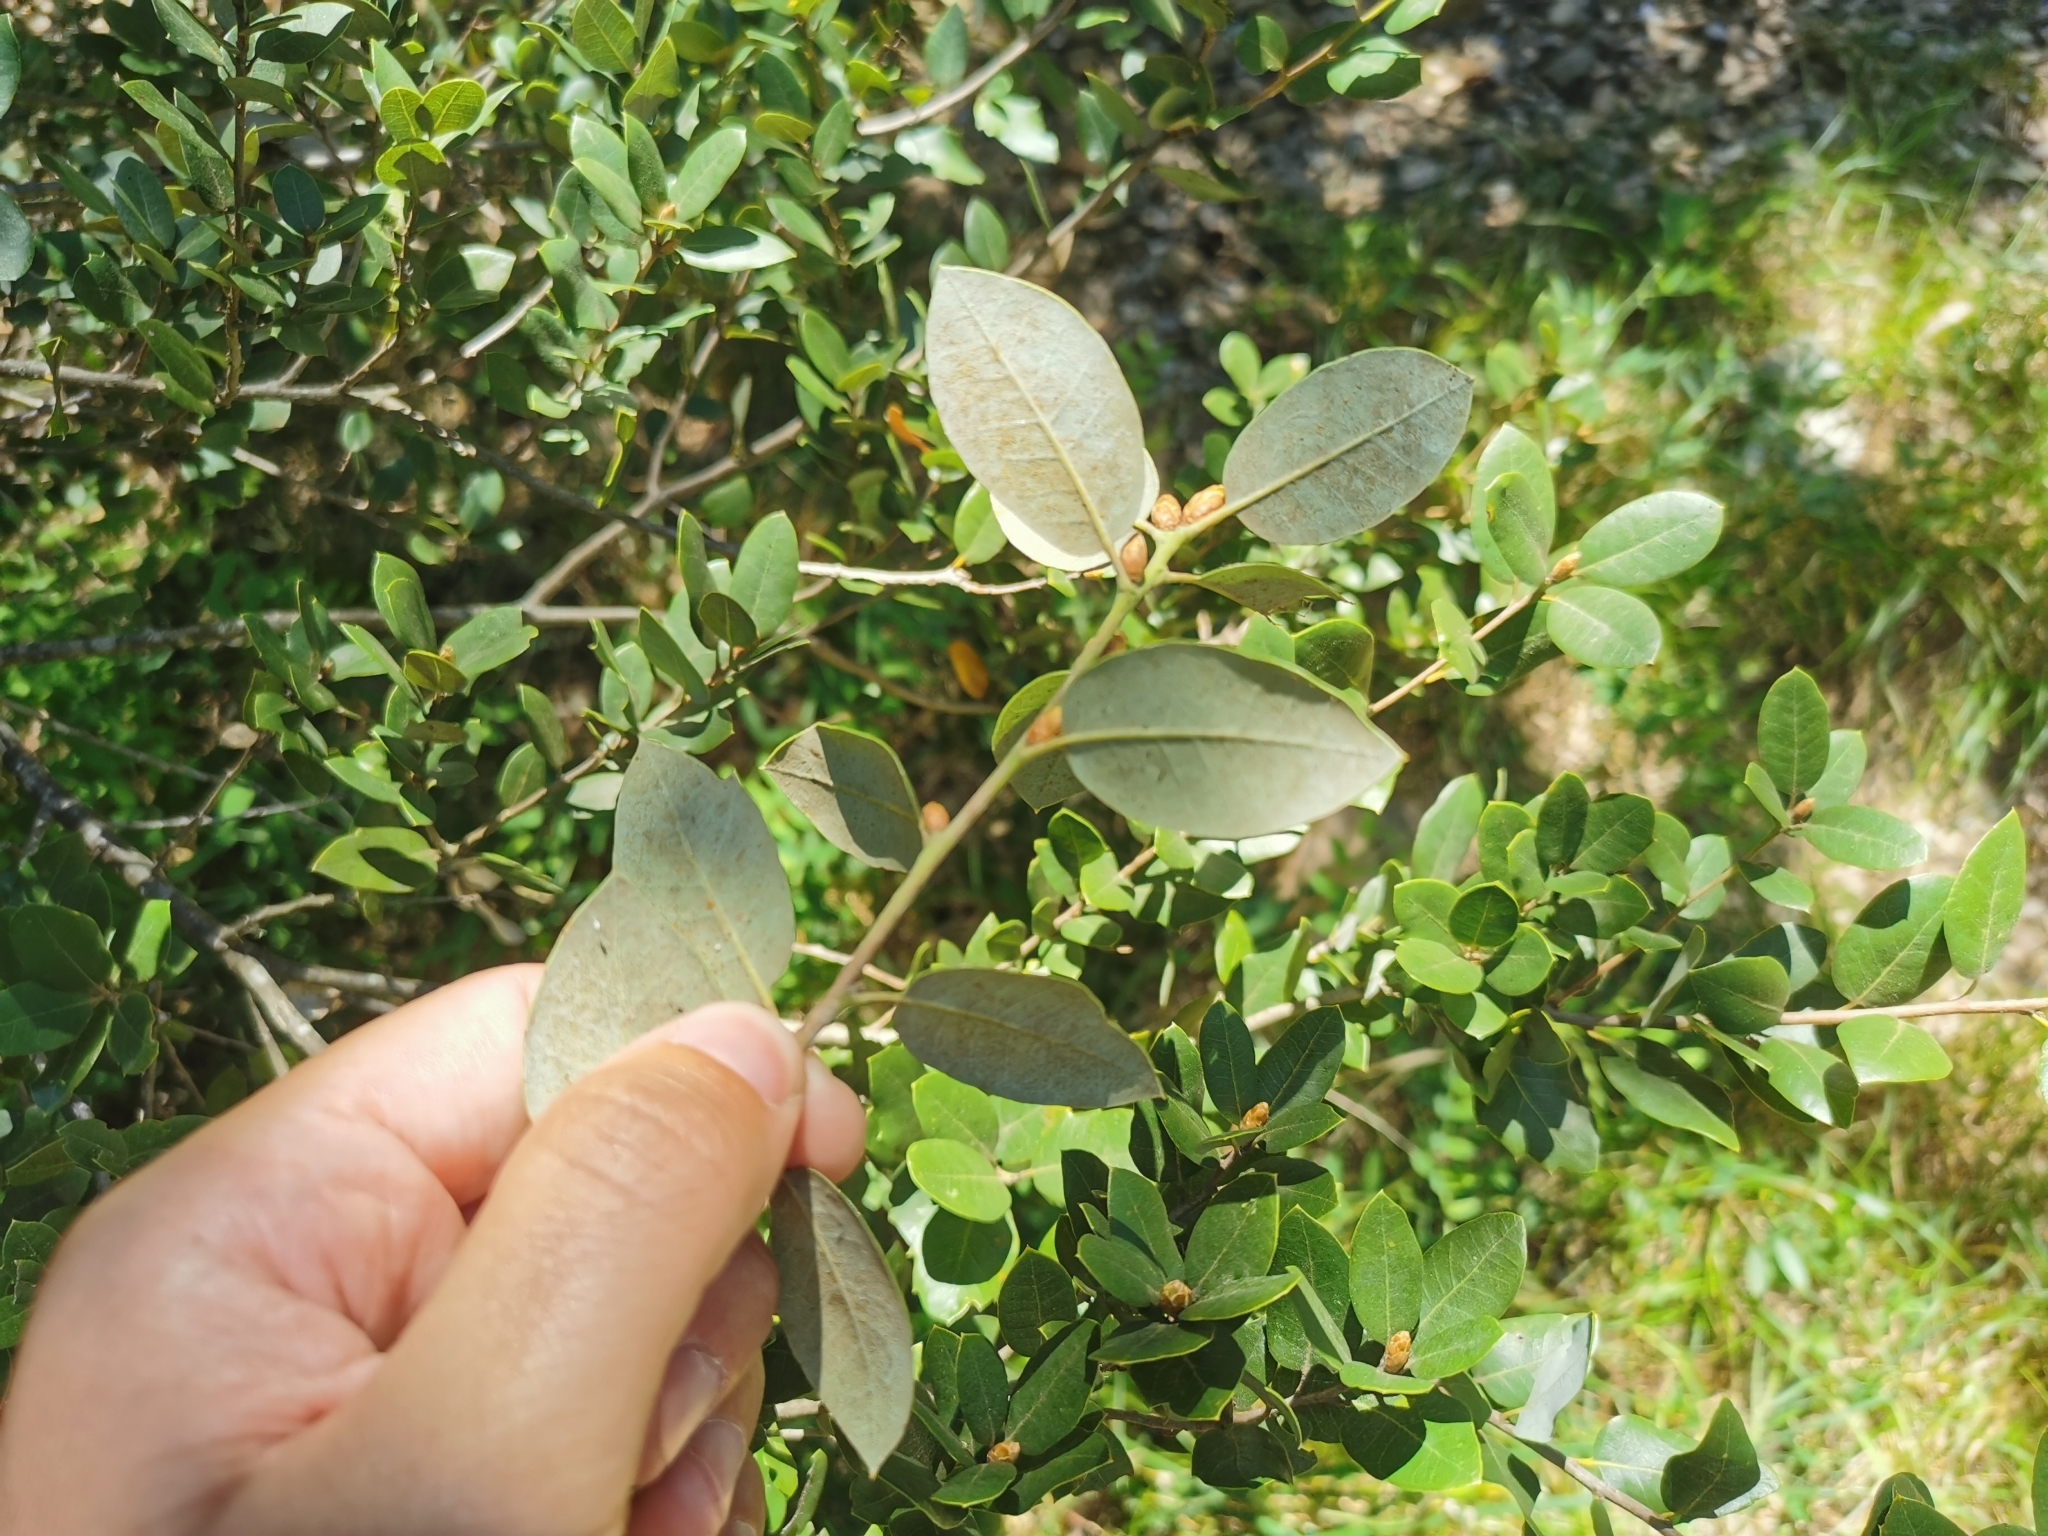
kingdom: Plantae
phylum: Tracheophyta
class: Magnoliopsida
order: Fagales
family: Fagaceae
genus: Quercus
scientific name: Quercus chrysolepis
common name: Canyon live oak
